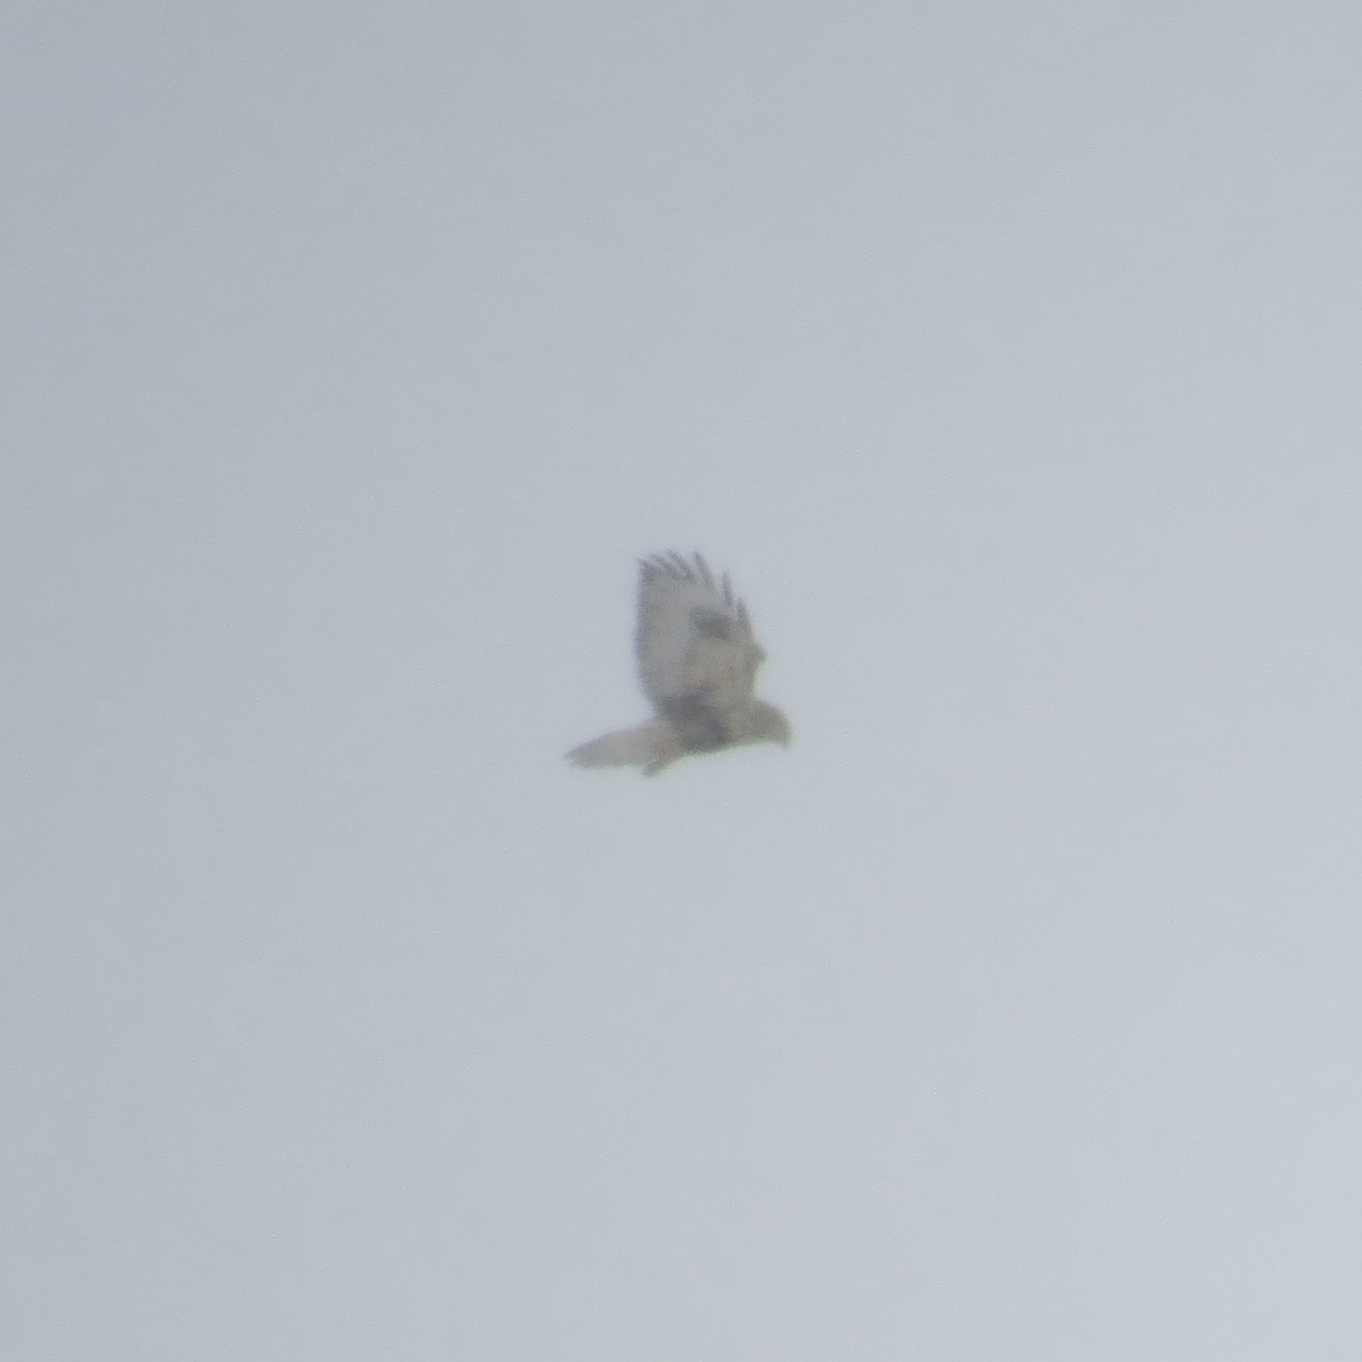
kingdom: Animalia
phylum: Chordata
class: Aves
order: Accipitriformes
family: Accipitridae
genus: Buteo
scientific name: Buteo lagopus
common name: Rough-legged buzzard
